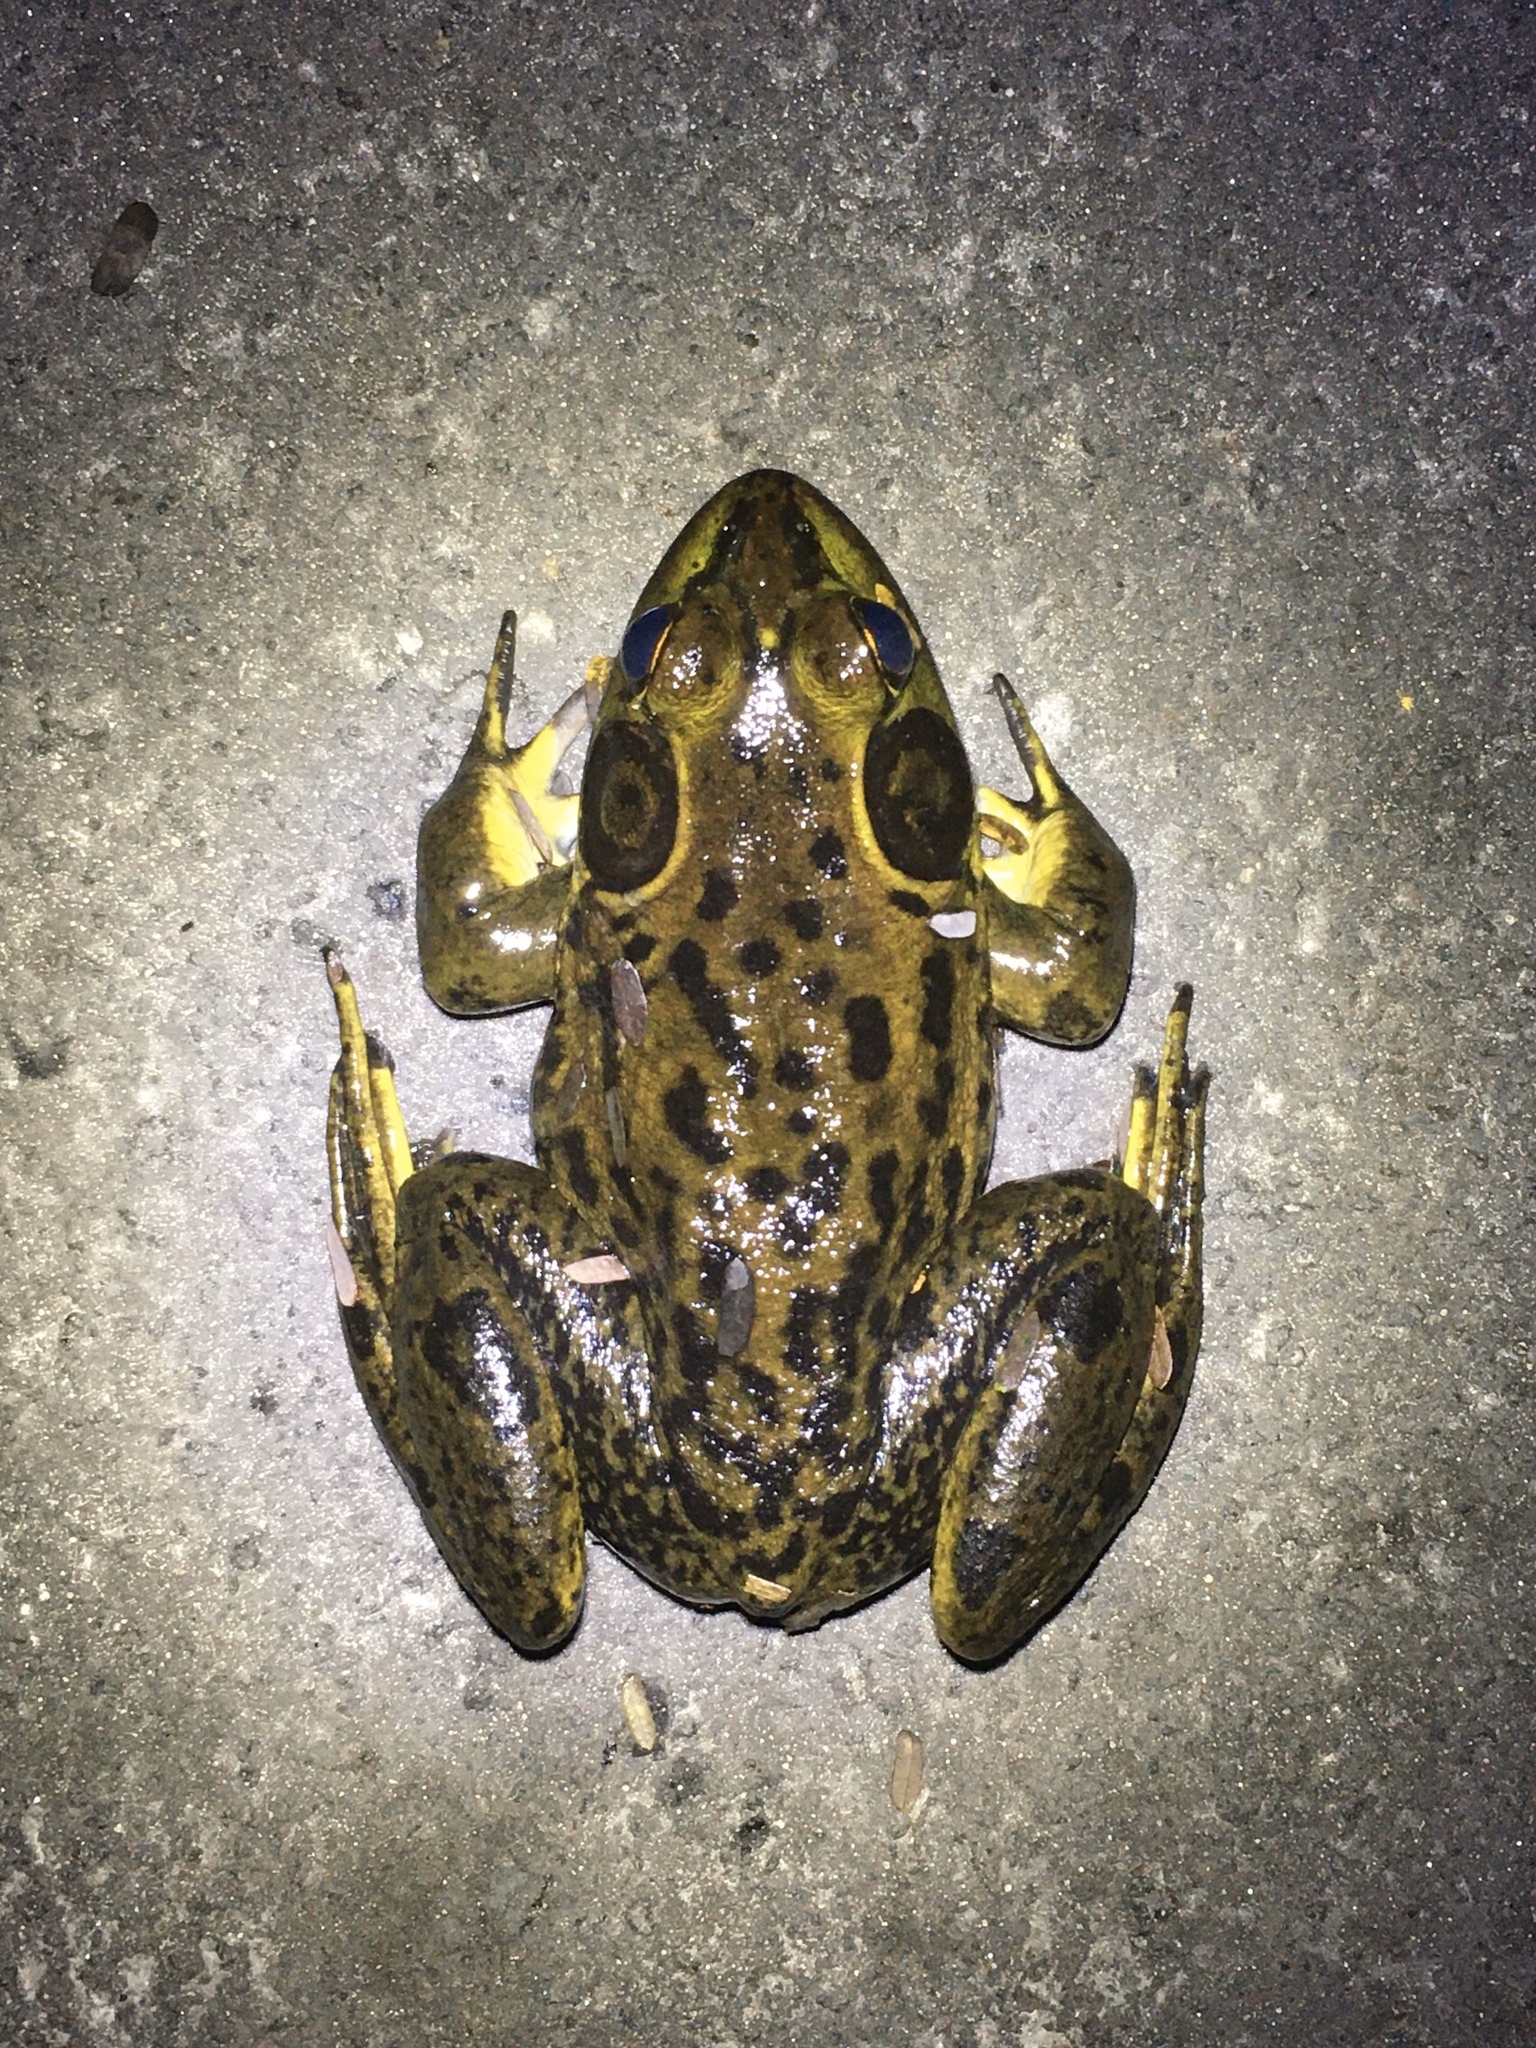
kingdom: Animalia
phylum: Chordata
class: Amphibia
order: Anura
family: Ranidae
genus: Lithobates
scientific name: Lithobates grylio
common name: Pig frog
